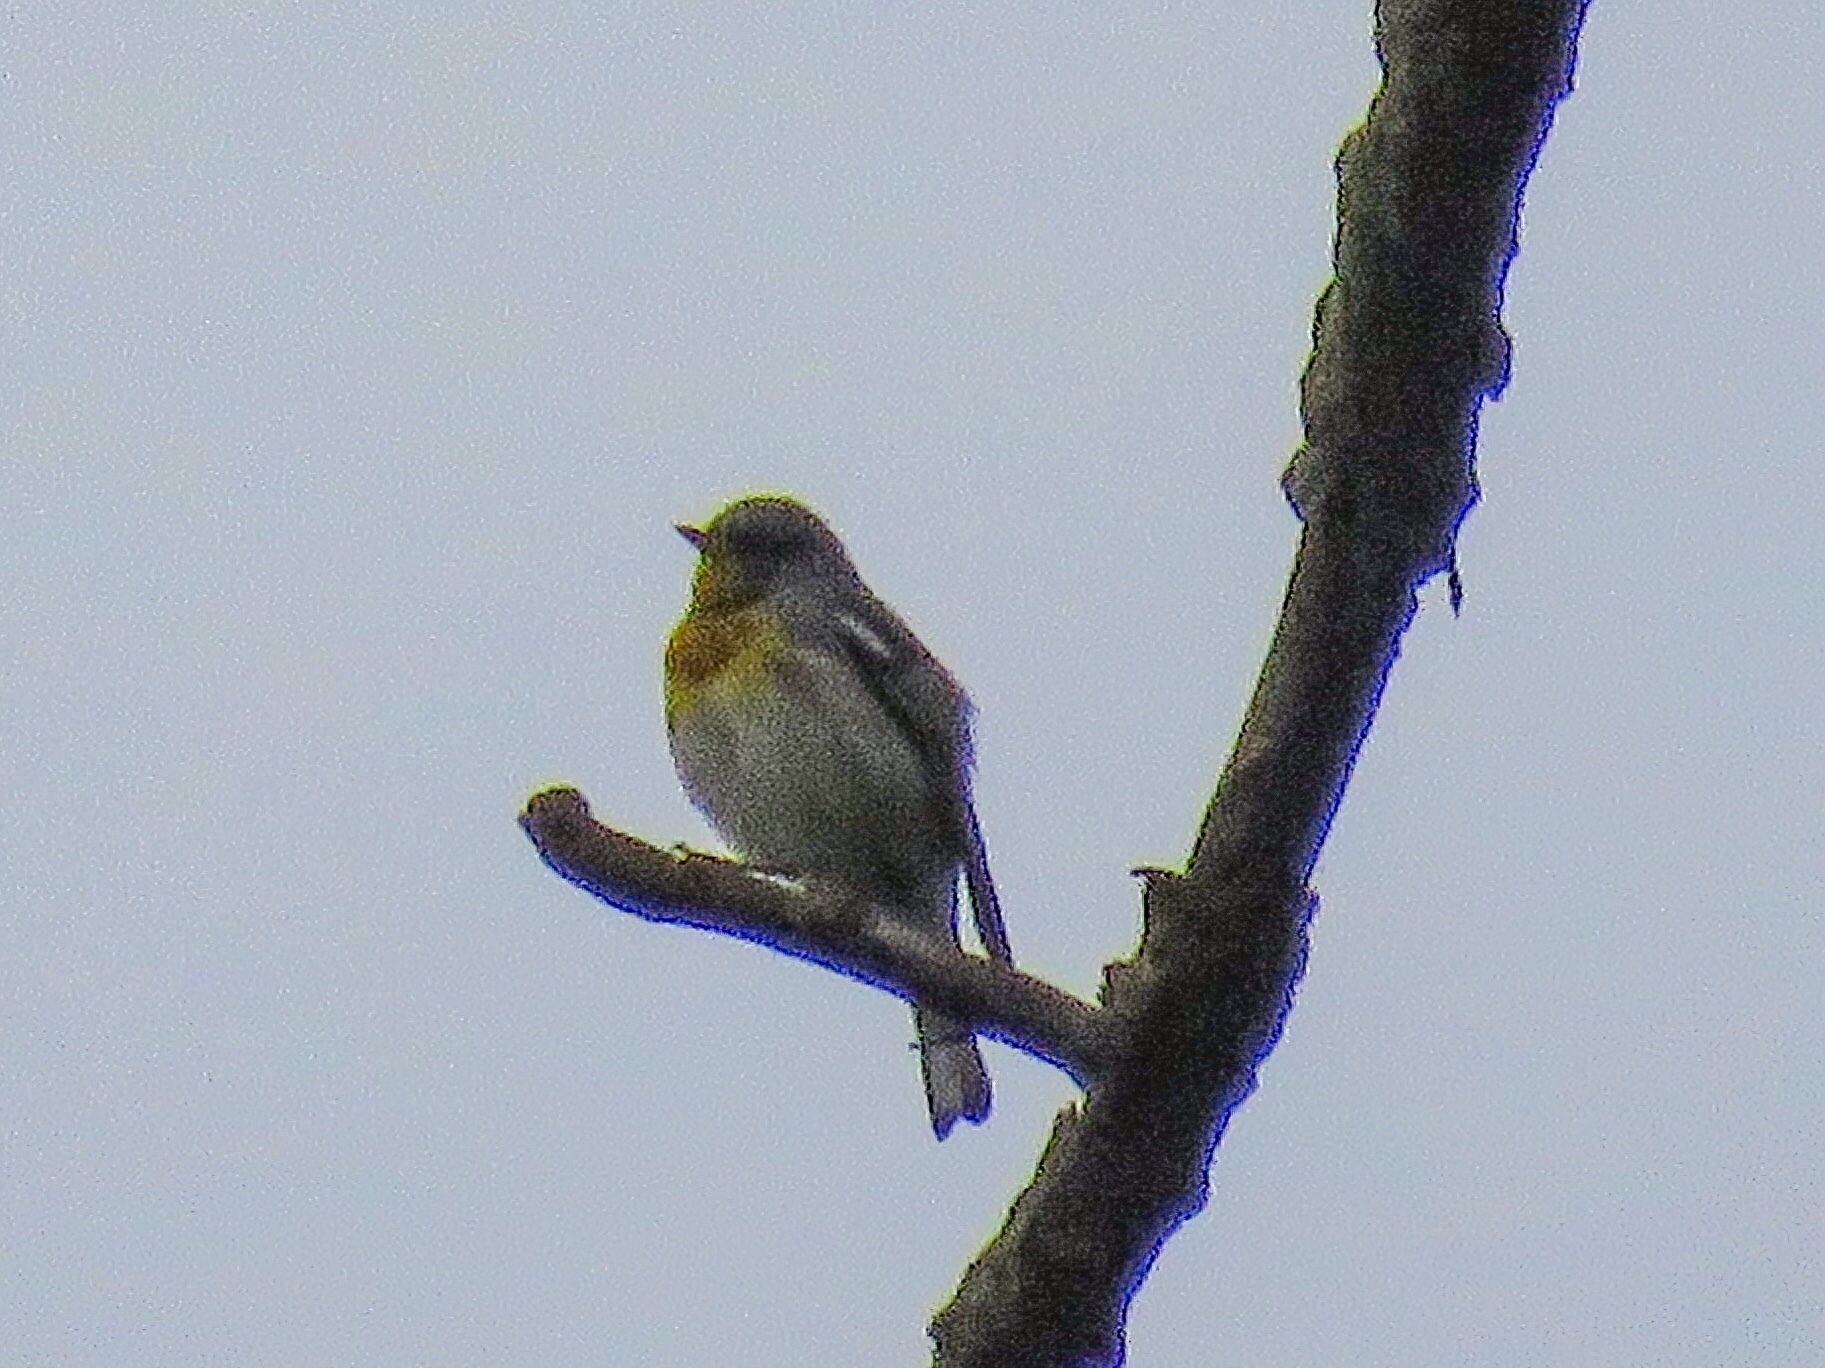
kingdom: Animalia
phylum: Chordata
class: Aves
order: Passeriformes
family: Parulidae
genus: Setophaga
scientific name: Setophaga americana
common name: Northern parula
